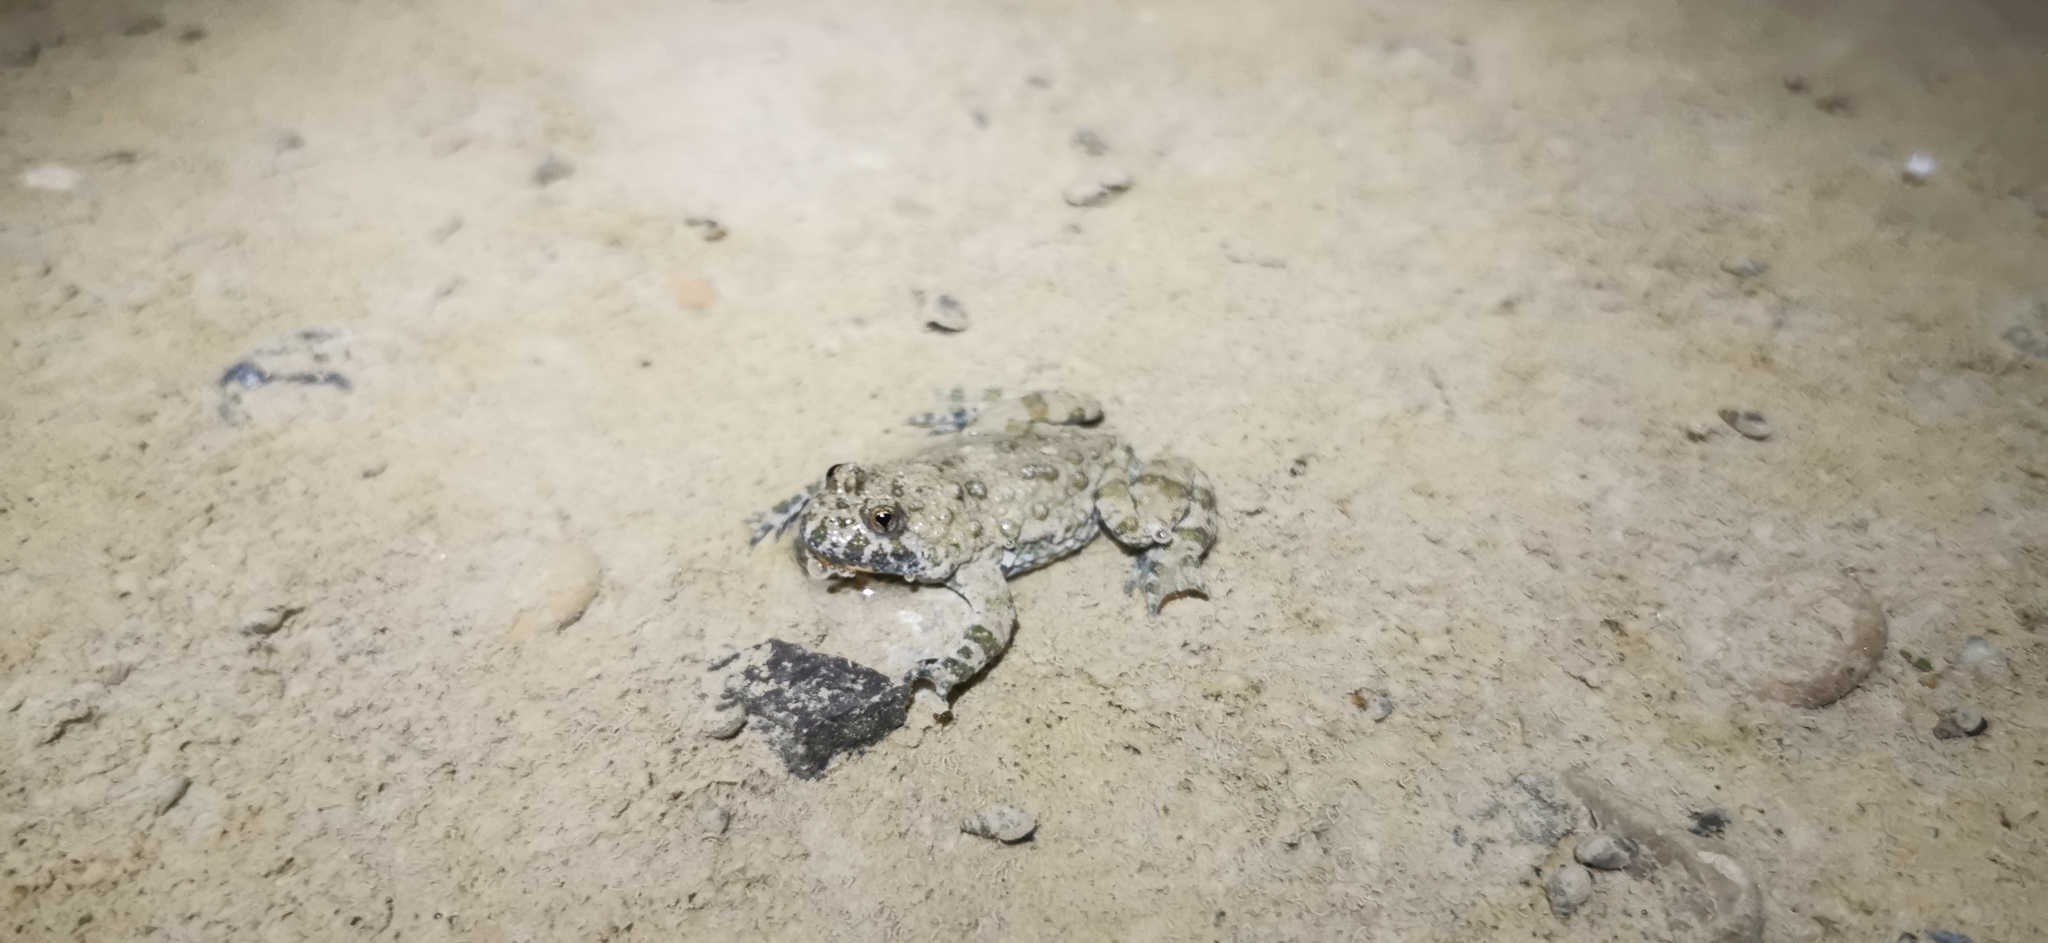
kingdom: Animalia
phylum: Chordata
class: Amphibia
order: Anura
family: Bombinatoridae
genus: Bombina
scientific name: Bombina variegata
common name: Yellow-bellied toad
